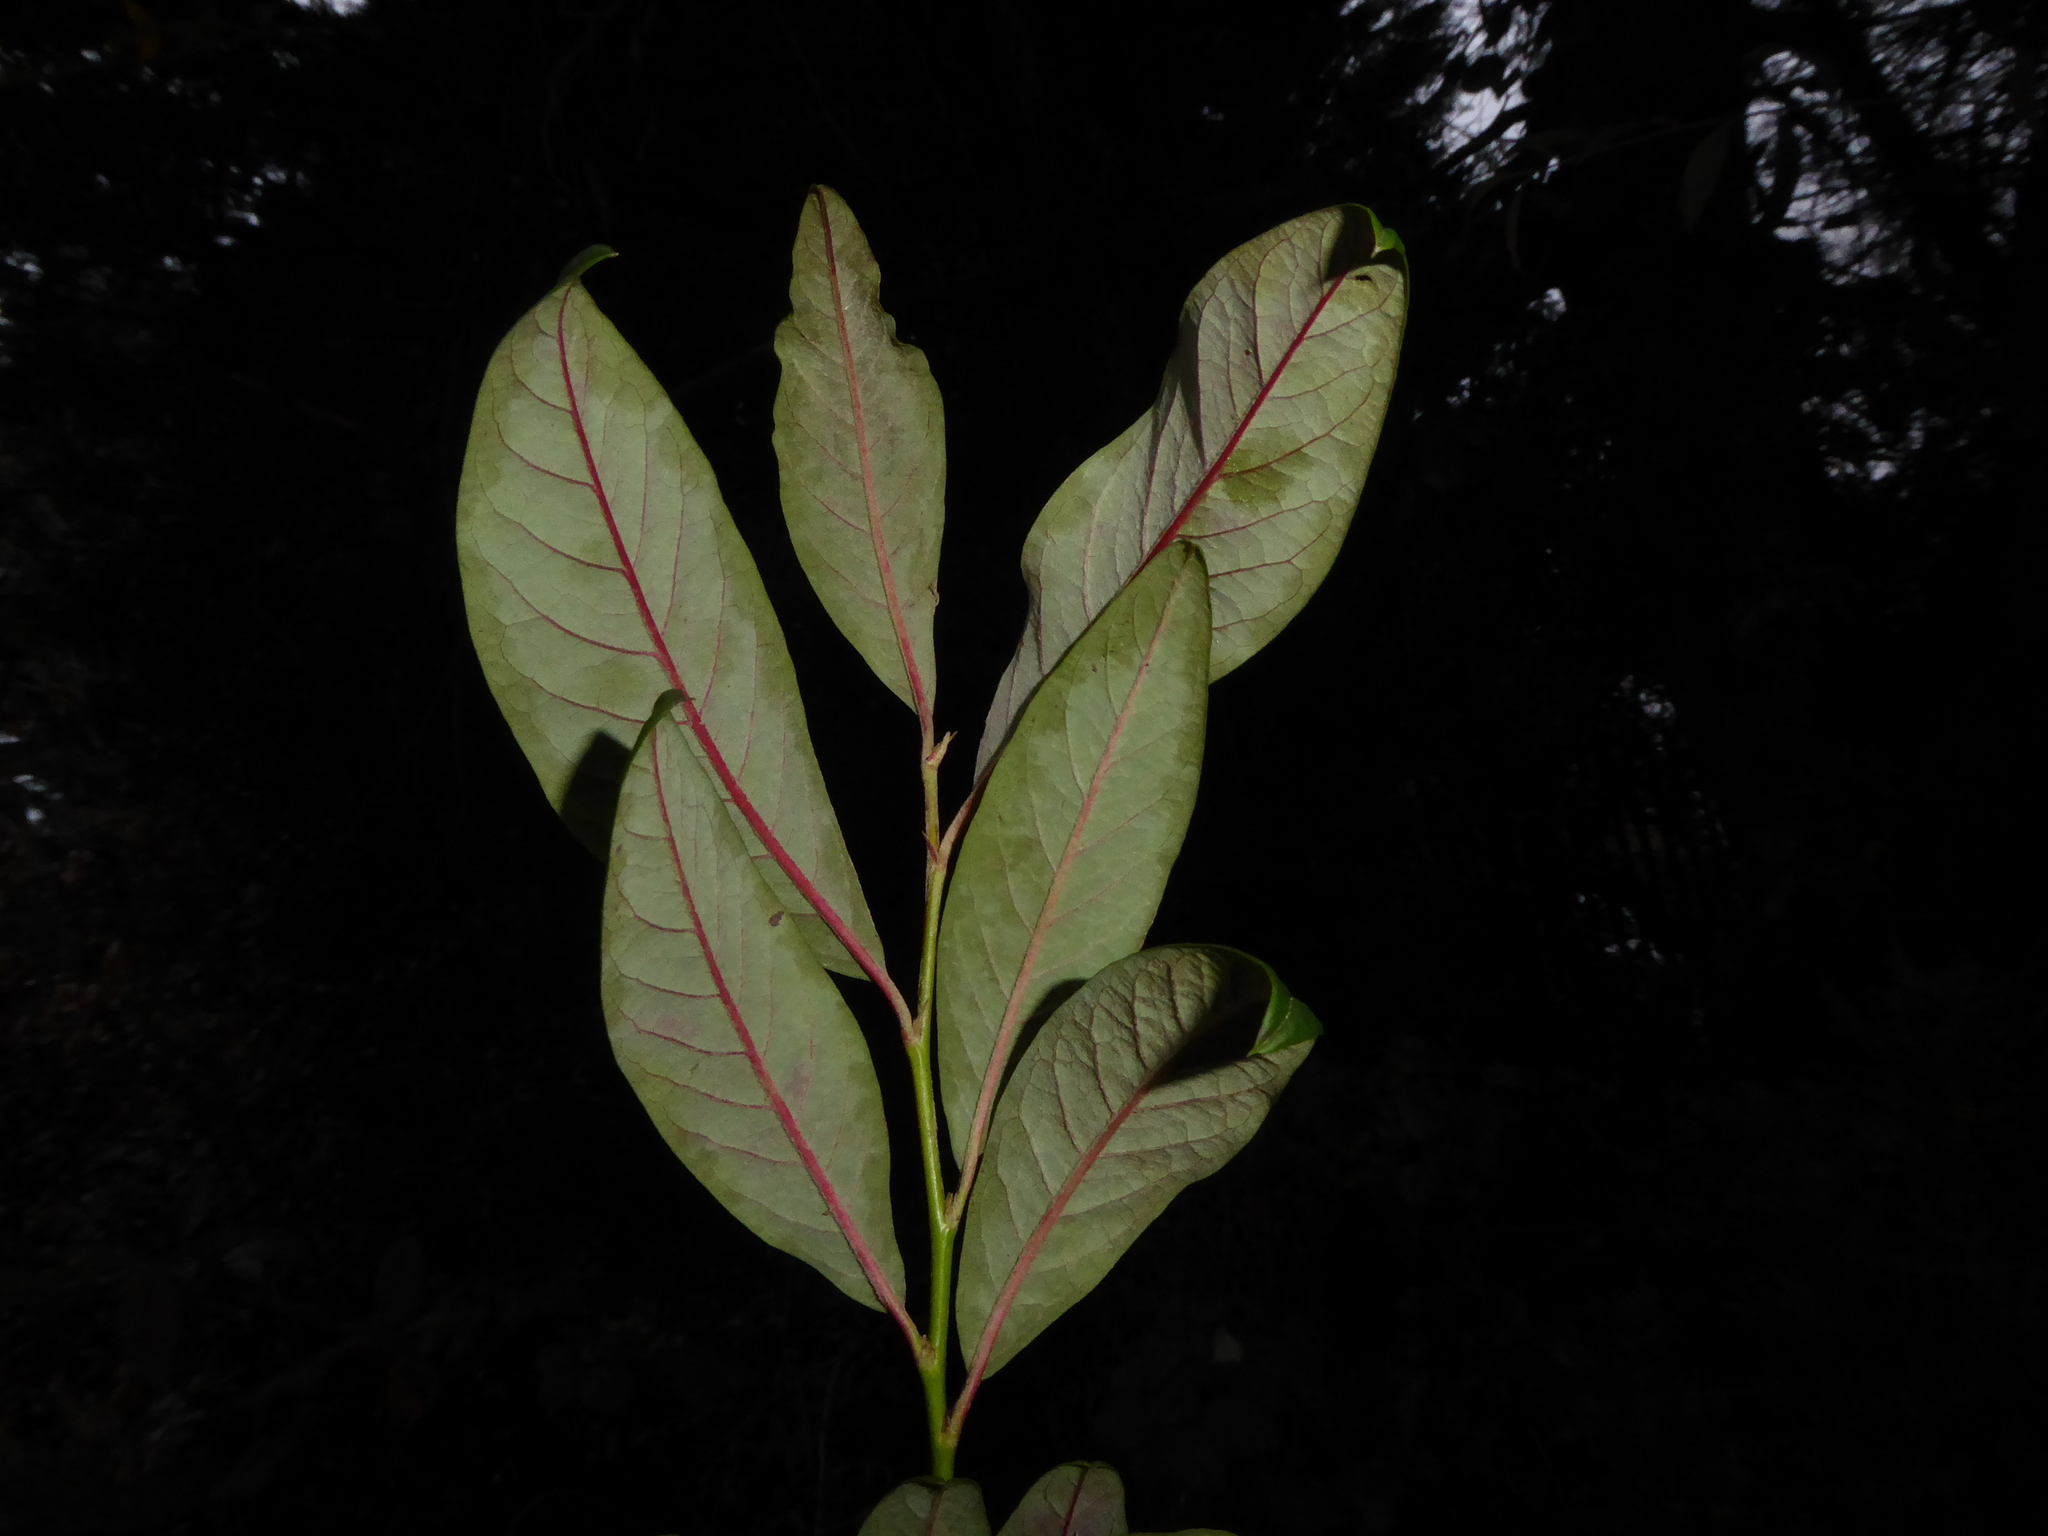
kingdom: Plantae
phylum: Tracheophyta
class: Magnoliopsida
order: Rosales
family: Rosaceae
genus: Cotoneaster
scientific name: Cotoneaster watereri
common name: Waterer's cotoneaster
